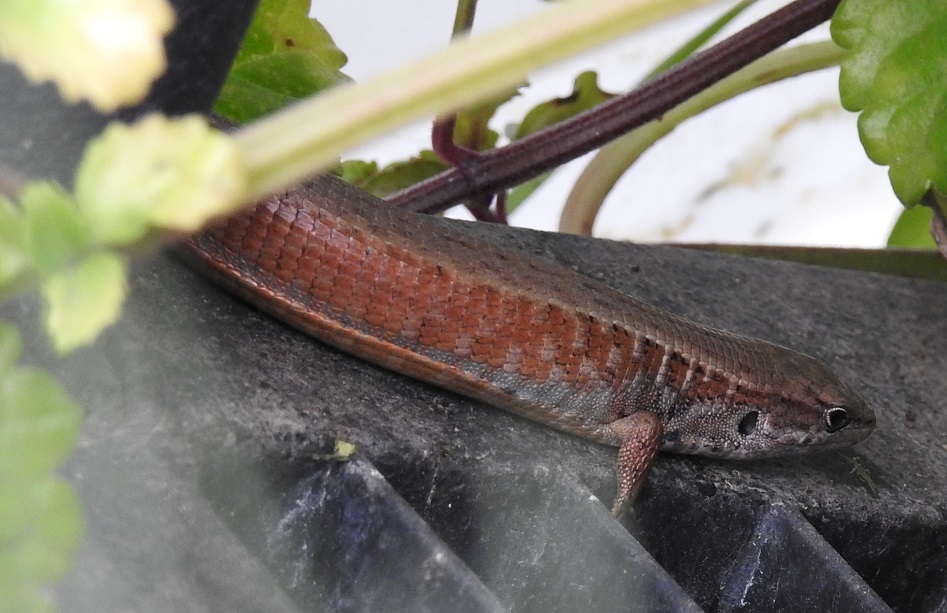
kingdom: Animalia
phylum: Chordata
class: Squamata
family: Anguidae
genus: Abronia
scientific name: Abronia moreletii
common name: Morelet's alligator lizard
